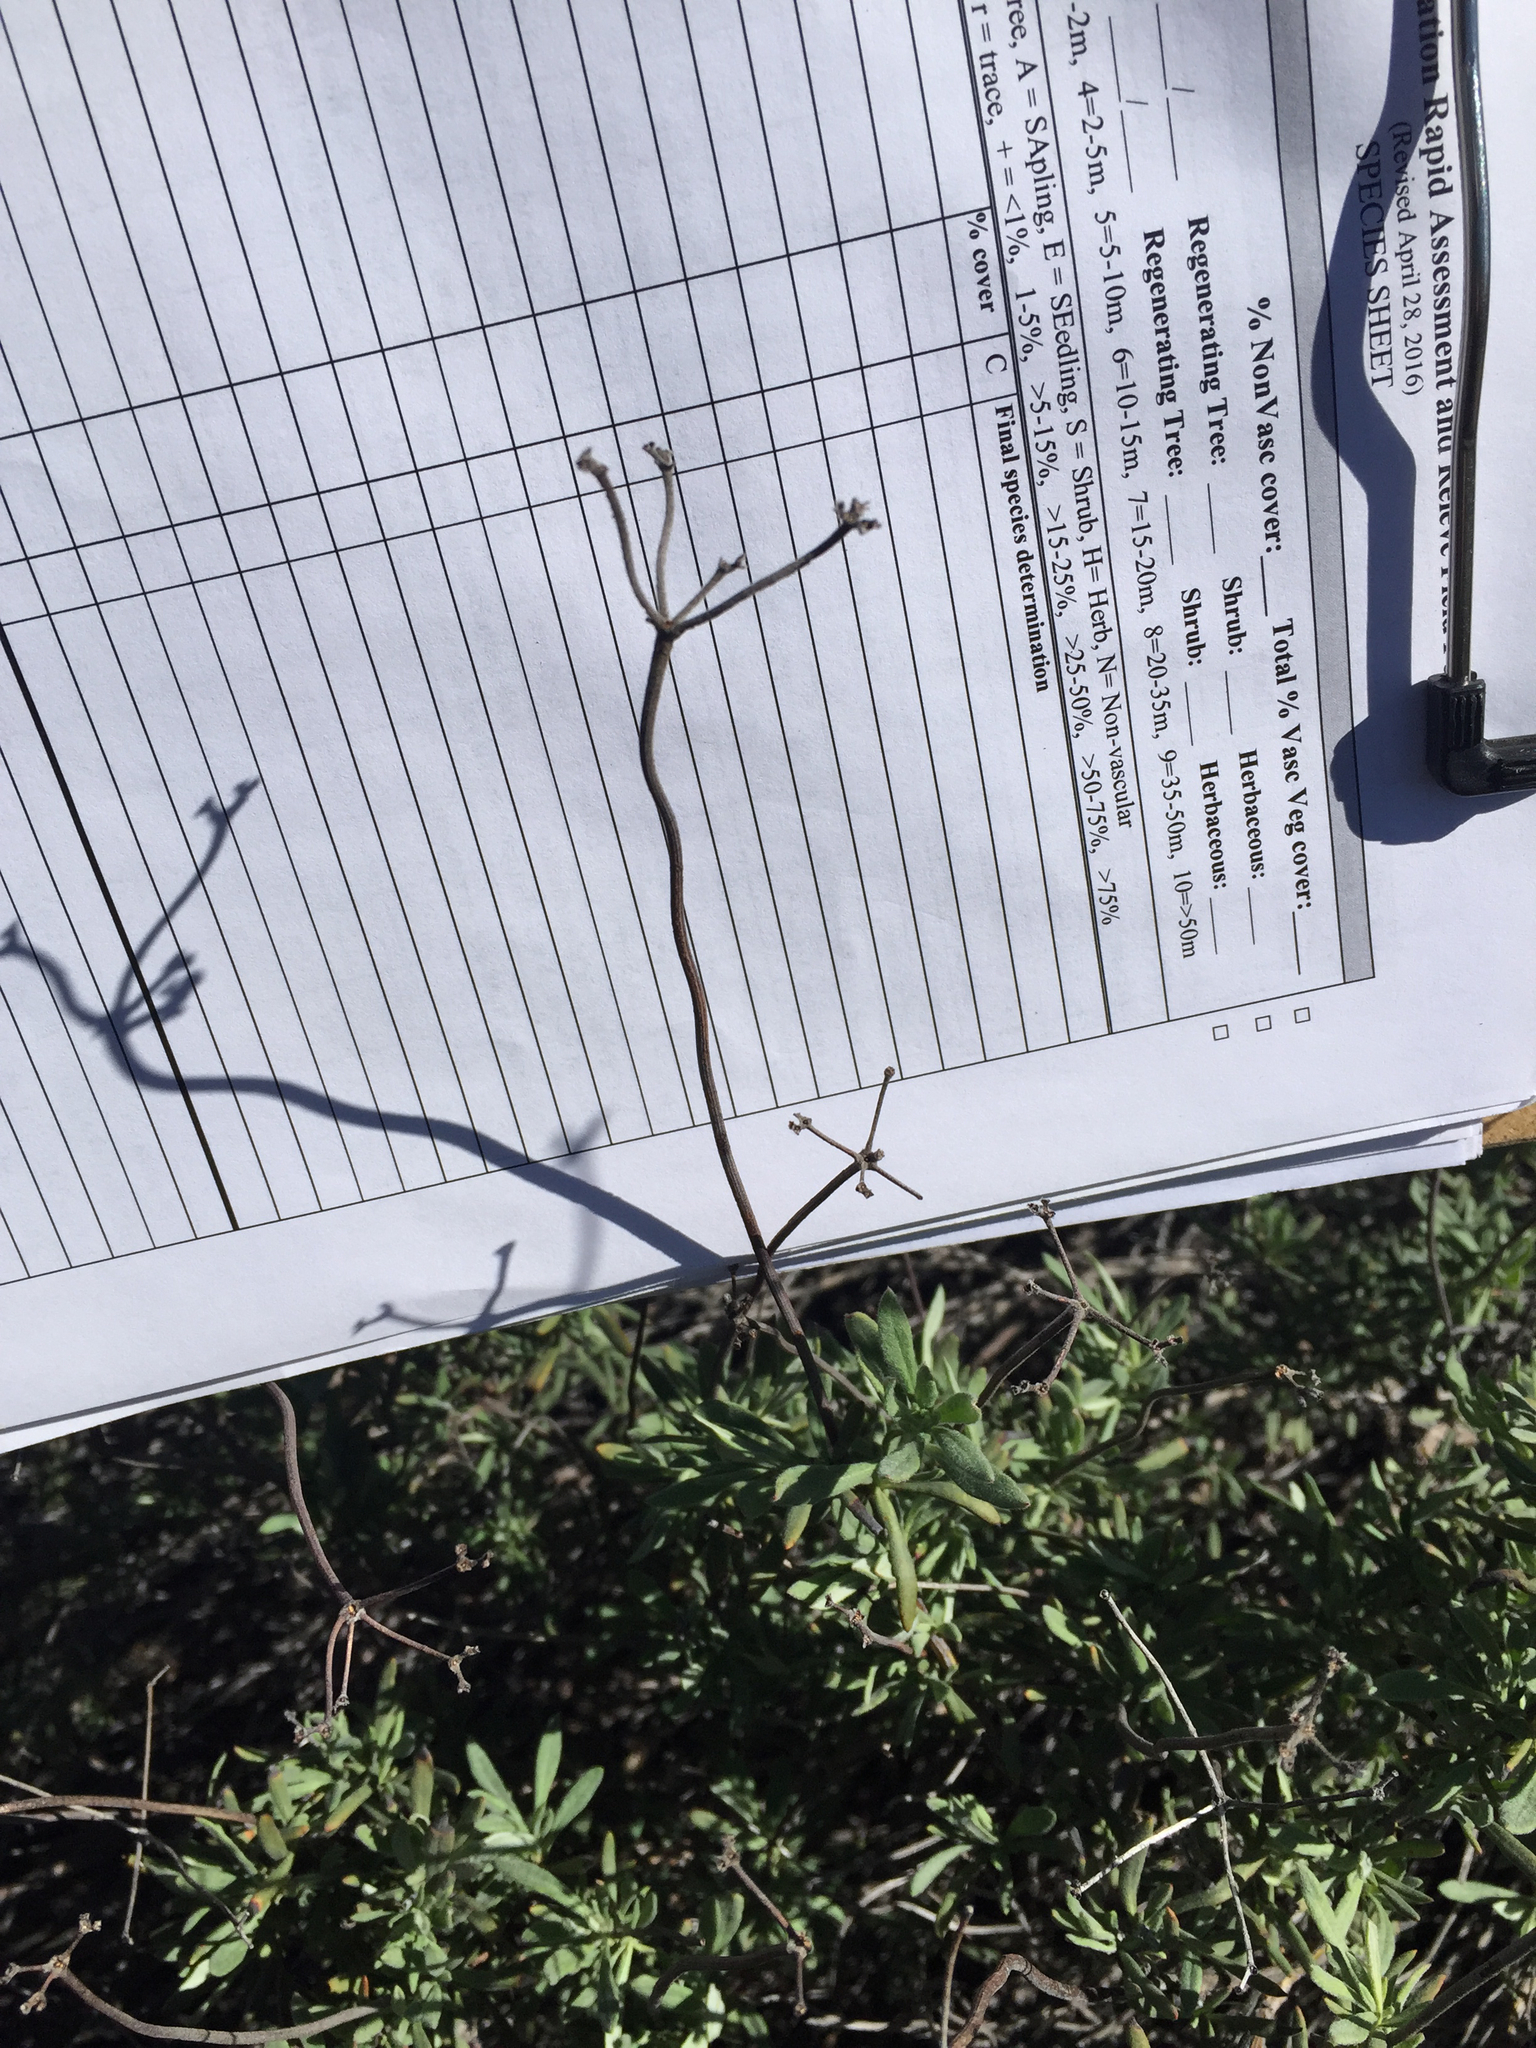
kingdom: Plantae
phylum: Tracheophyta
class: Magnoliopsida
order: Caryophyllales
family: Polygonaceae
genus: Eriogonum
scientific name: Eriogonum fasciculatum
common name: California wild buckwheat
